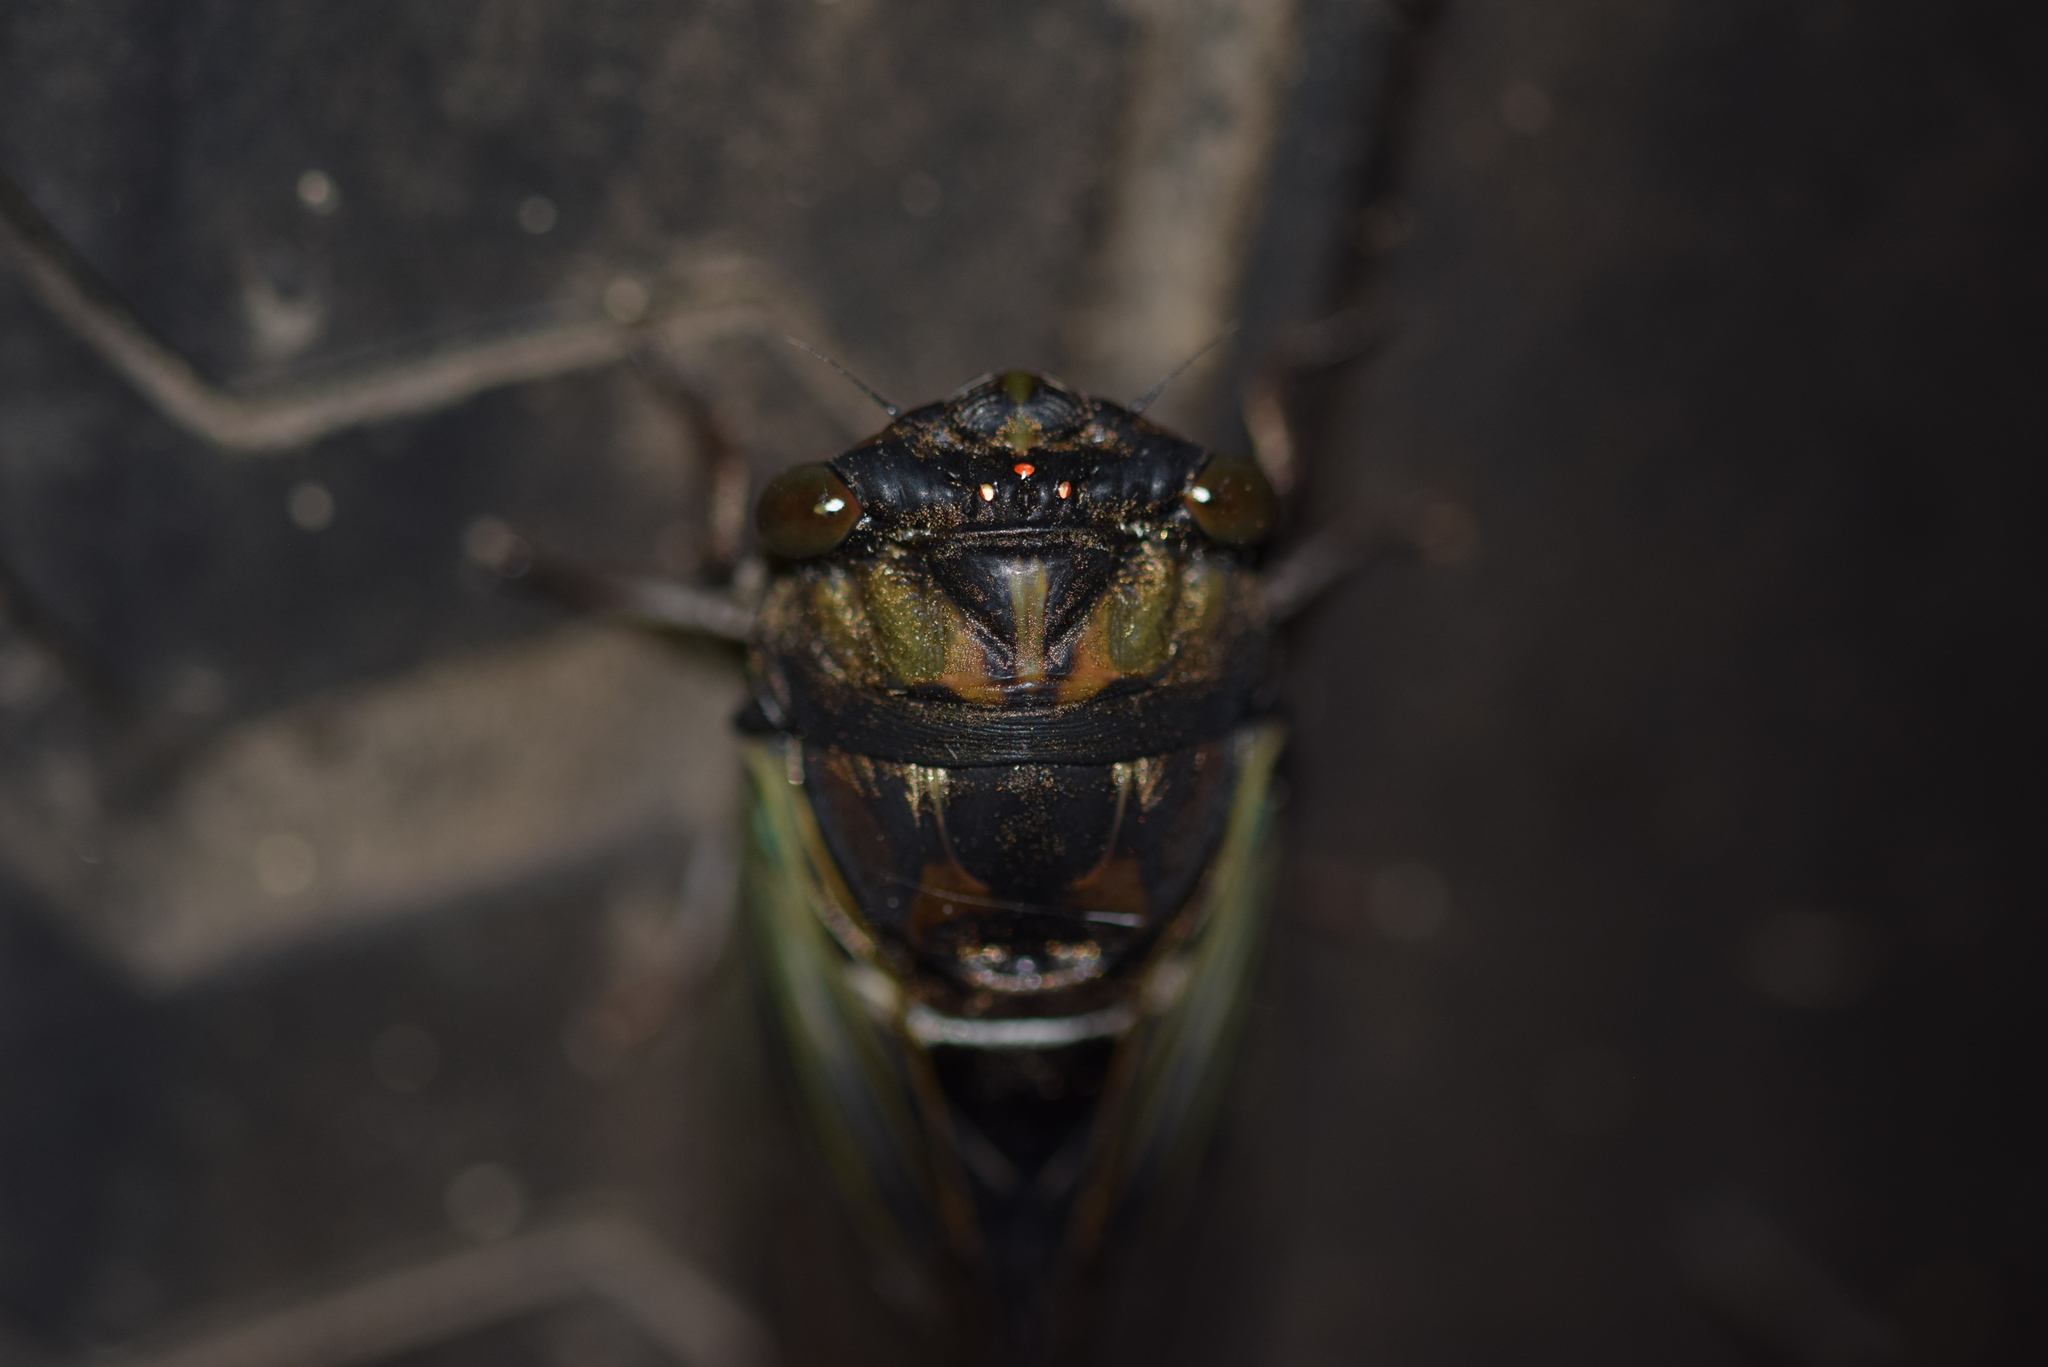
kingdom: Animalia
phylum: Arthropoda
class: Insecta
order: Hemiptera
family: Cicadidae
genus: Neotibicen
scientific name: Neotibicen lyricen
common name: Lyric cicada
